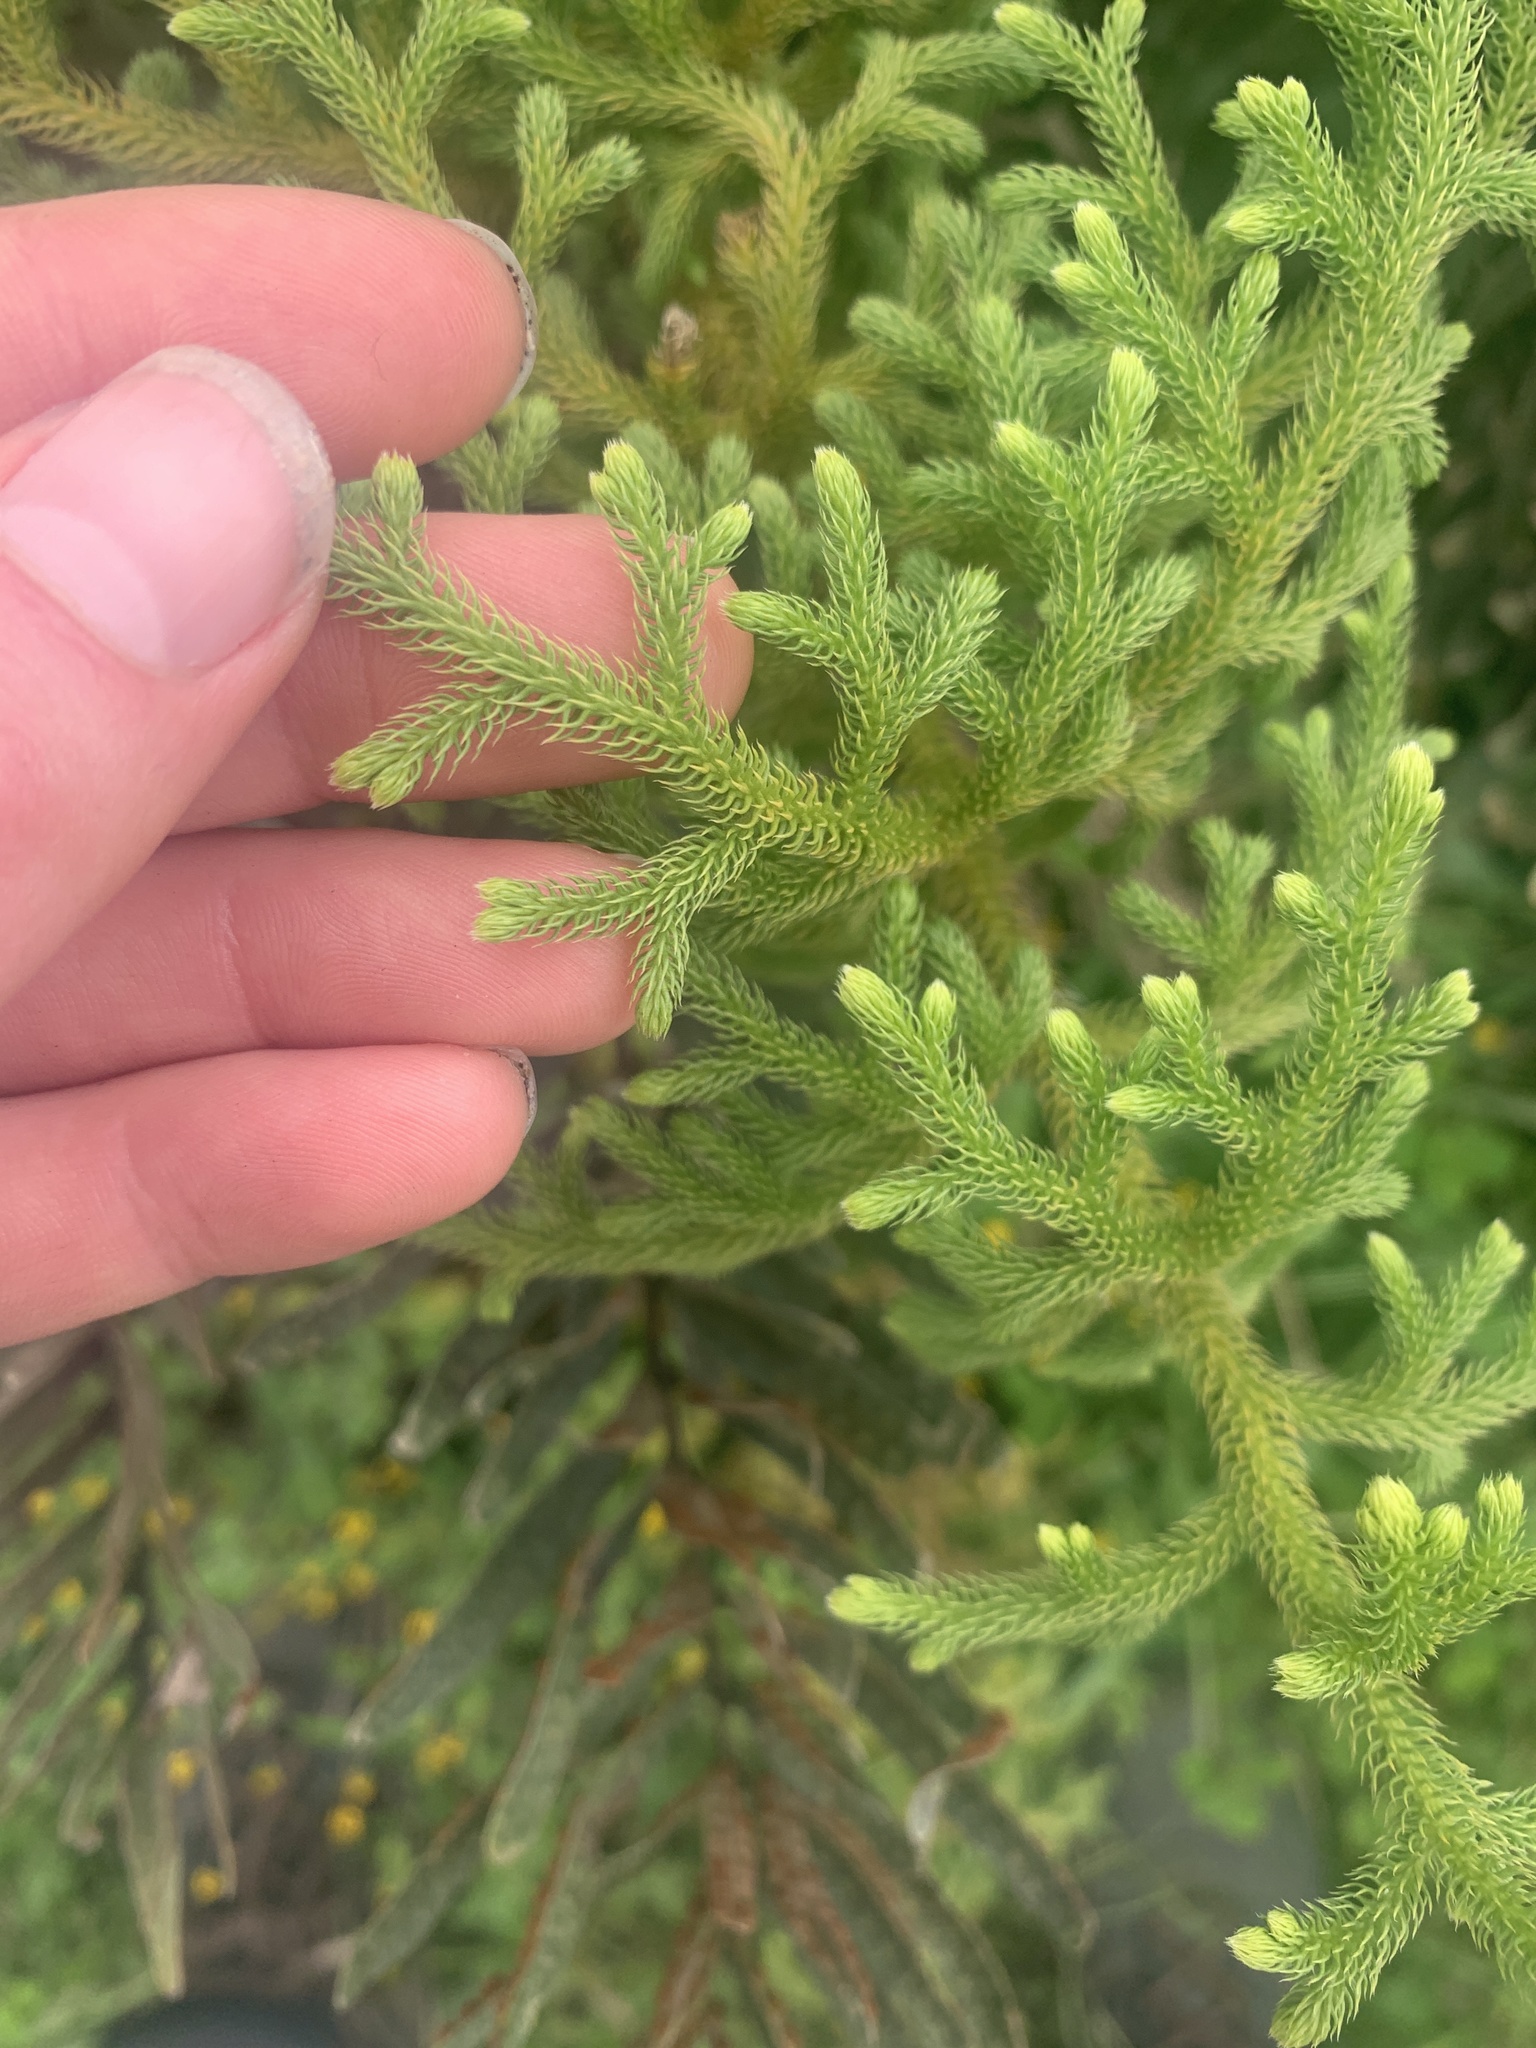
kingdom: Plantae
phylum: Tracheophyta
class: Lycopodiopsida
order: Lycopodiales
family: Lycopodiaceae
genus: Palhinhaea
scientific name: Palhinhaea cernua
